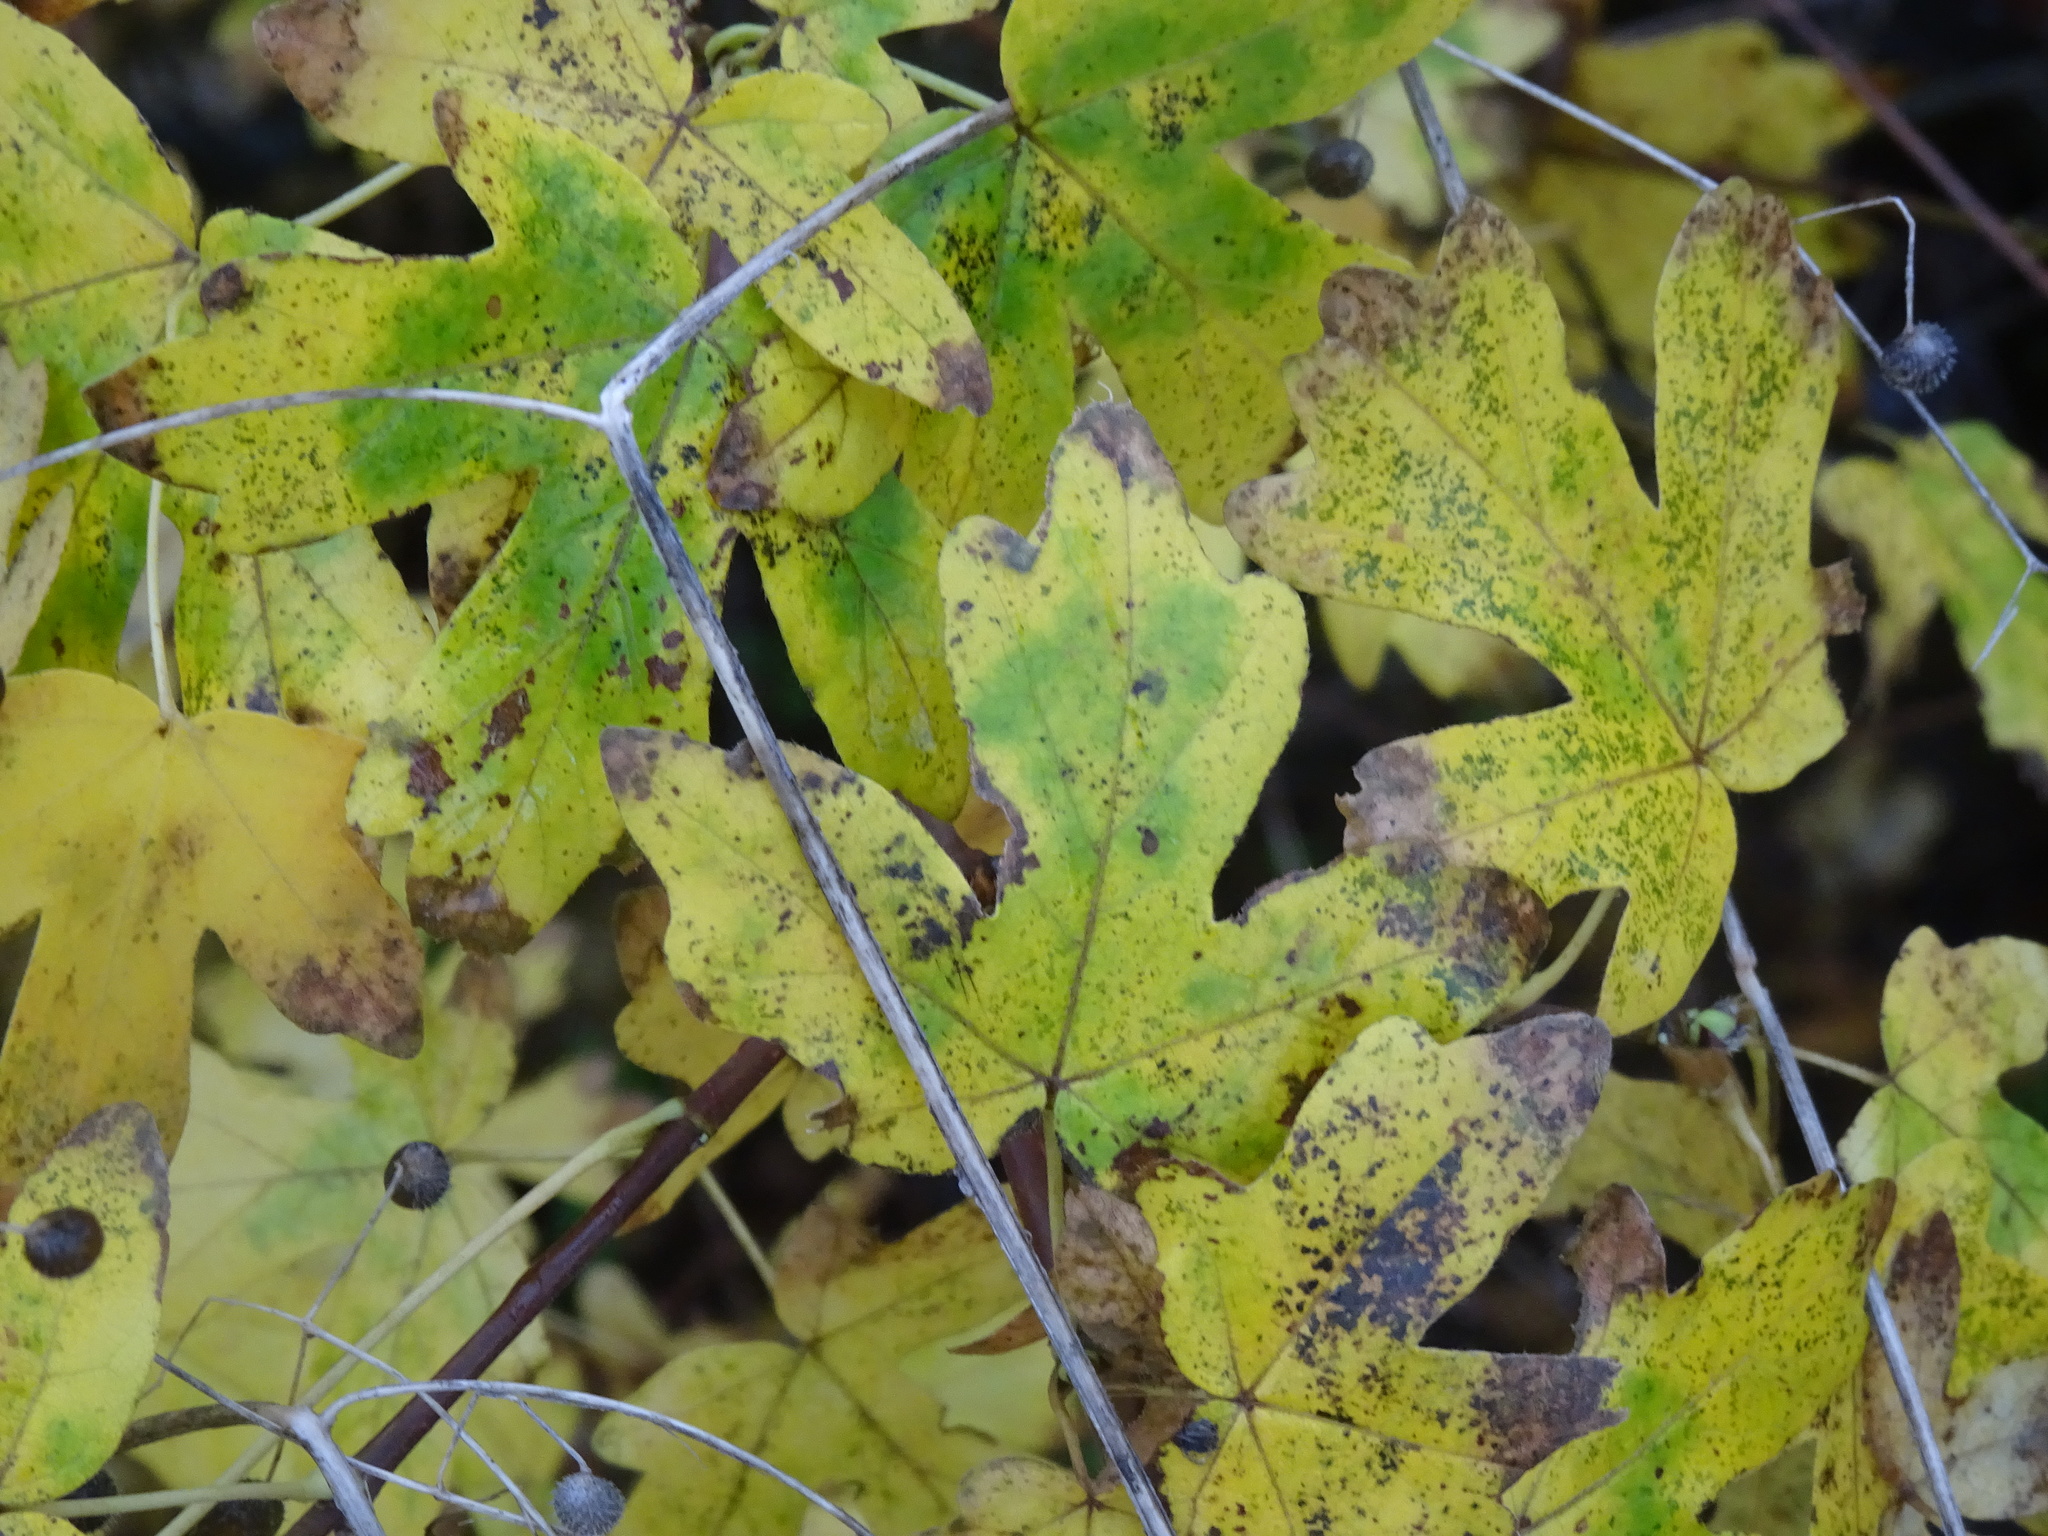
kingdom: Plantae
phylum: Tracheophyta
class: Magnoliopsida
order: Sapindales
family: Sapindaceae
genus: Acer
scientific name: Acer campestre
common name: Field maple
